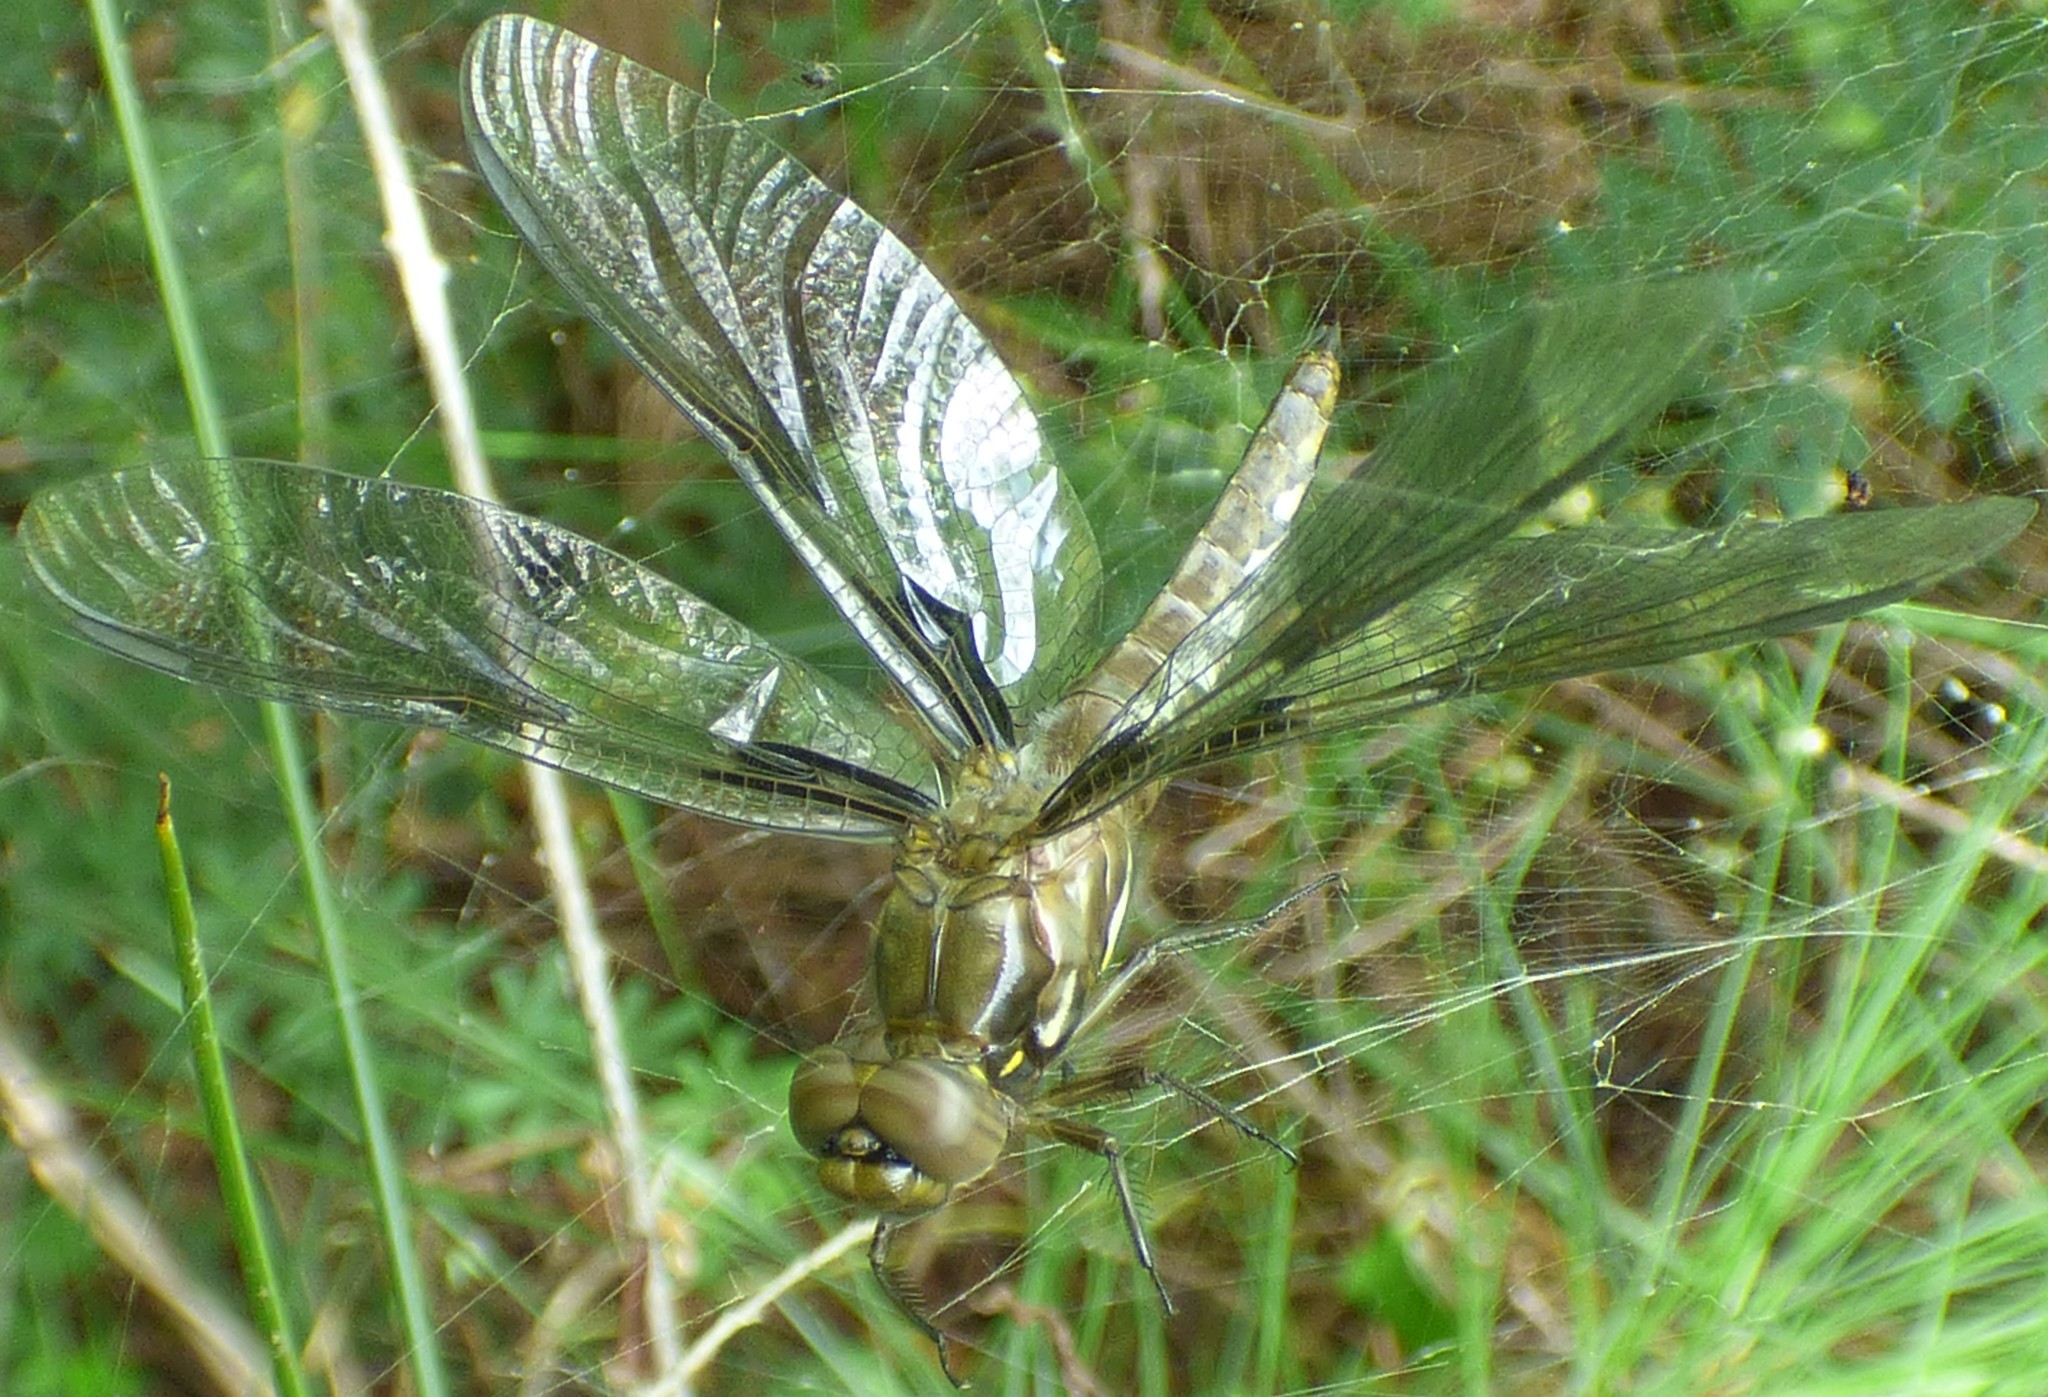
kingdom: Animalia
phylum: Arthropoda
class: Insecta
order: Odonata
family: Libellulidae
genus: Plathemis
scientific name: Plathemis lydia
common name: Common whitetail
